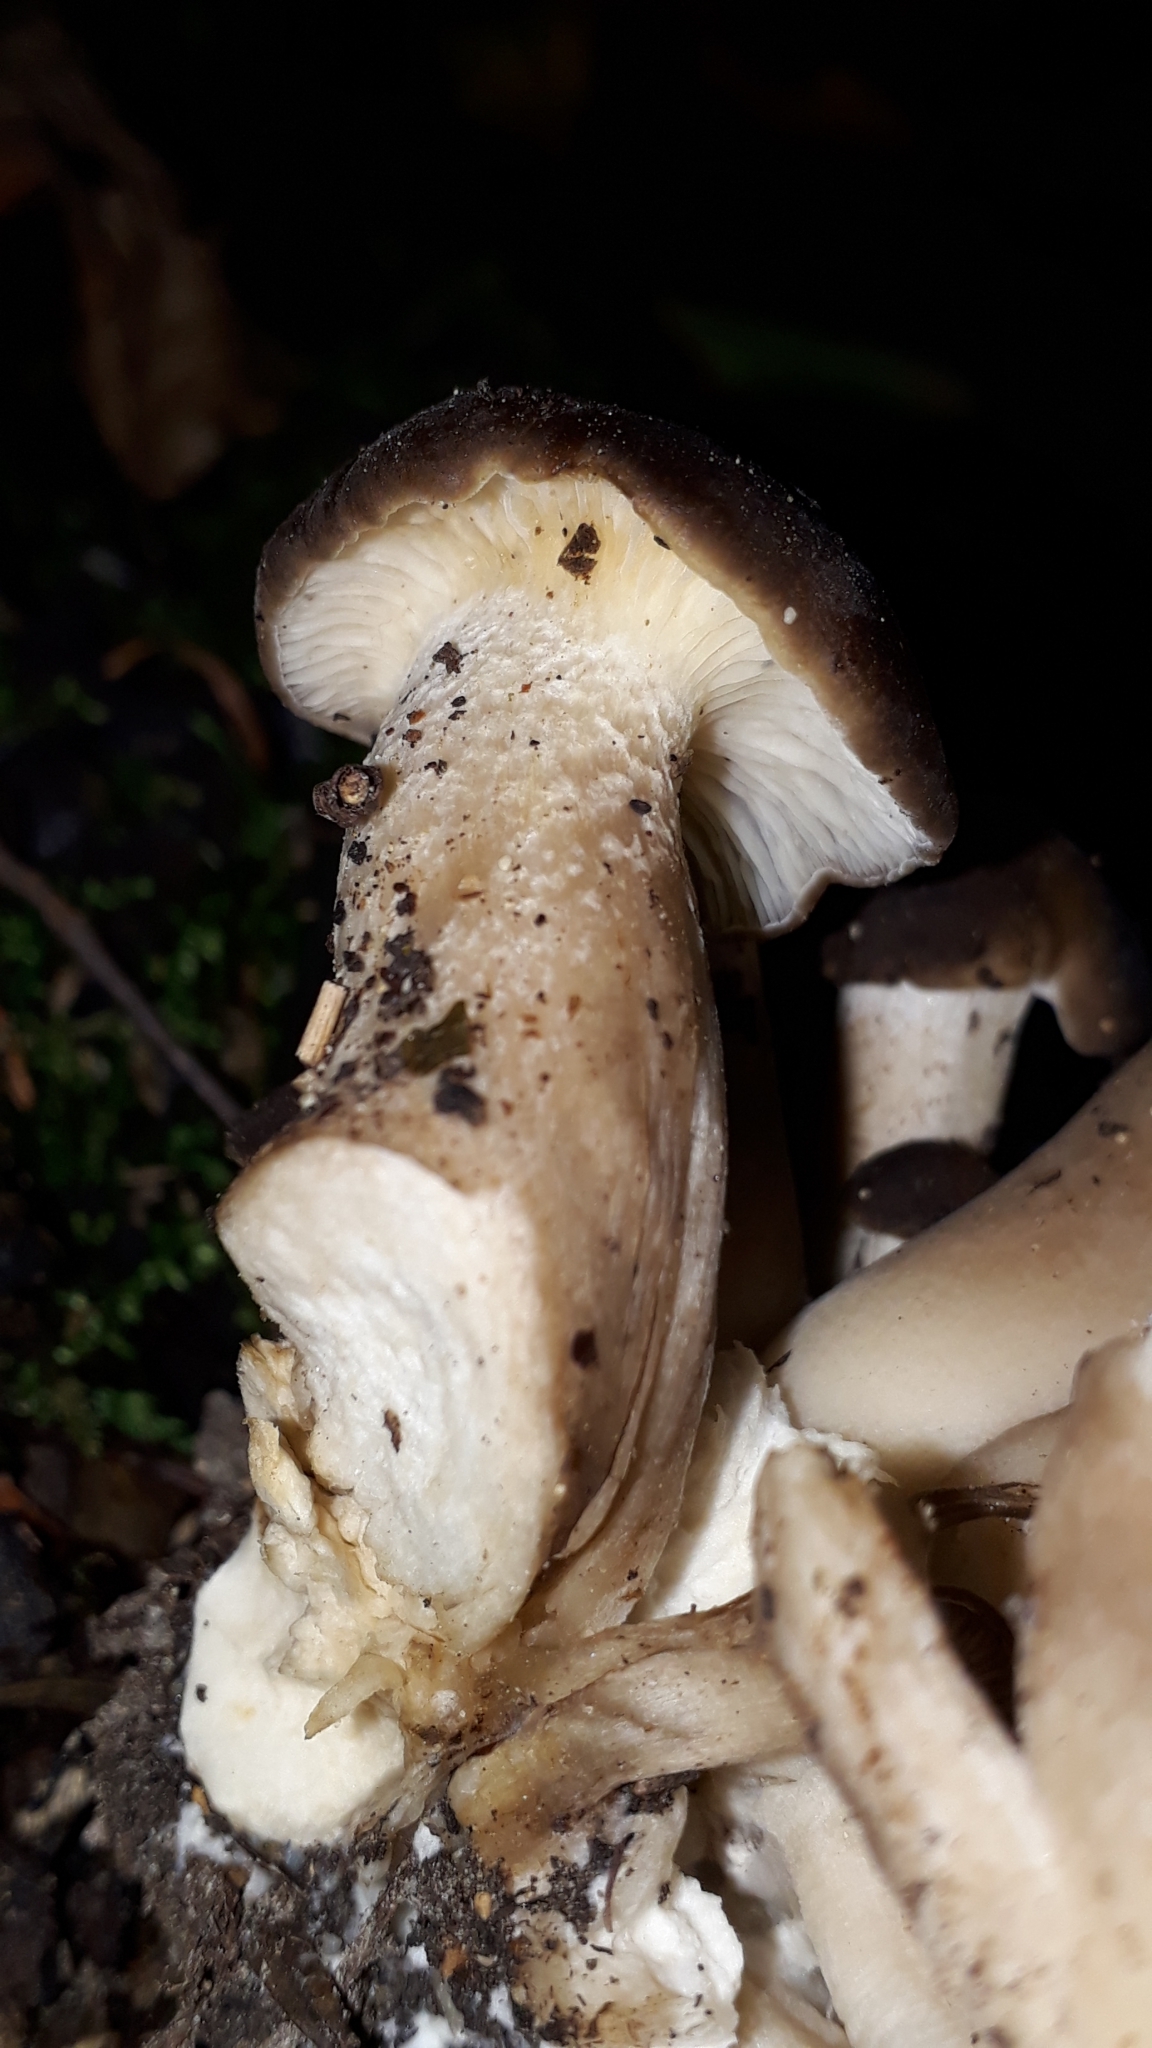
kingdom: Fungi
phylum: Basidiomycota
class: Agaricomycetes
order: Agaricales
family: Lyophyllaceae
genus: Lyophyllum
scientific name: Lyophyllum decastes
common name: Clustered domecap
